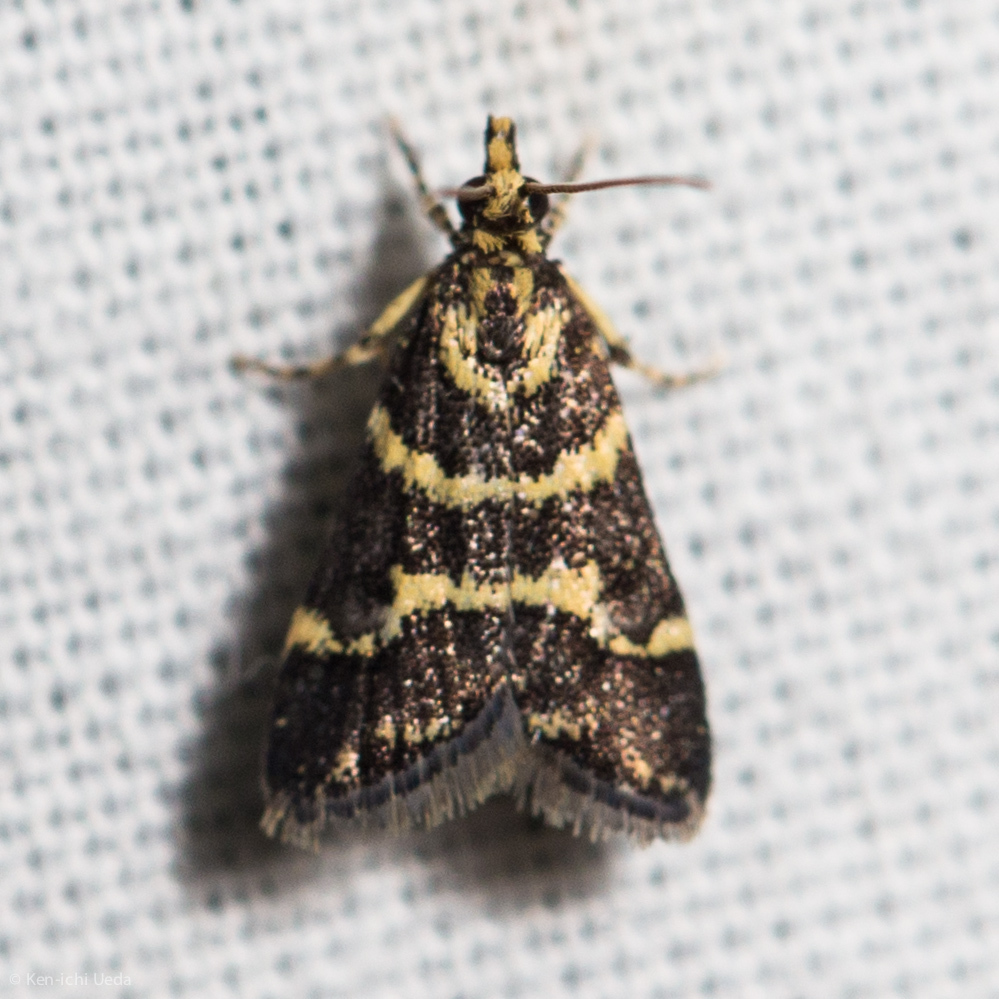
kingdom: Animalia
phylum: Arthropoda
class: Insecta
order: Lepidoptera
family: Crambidae
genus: Scoparia
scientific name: Scoparia spelaea
